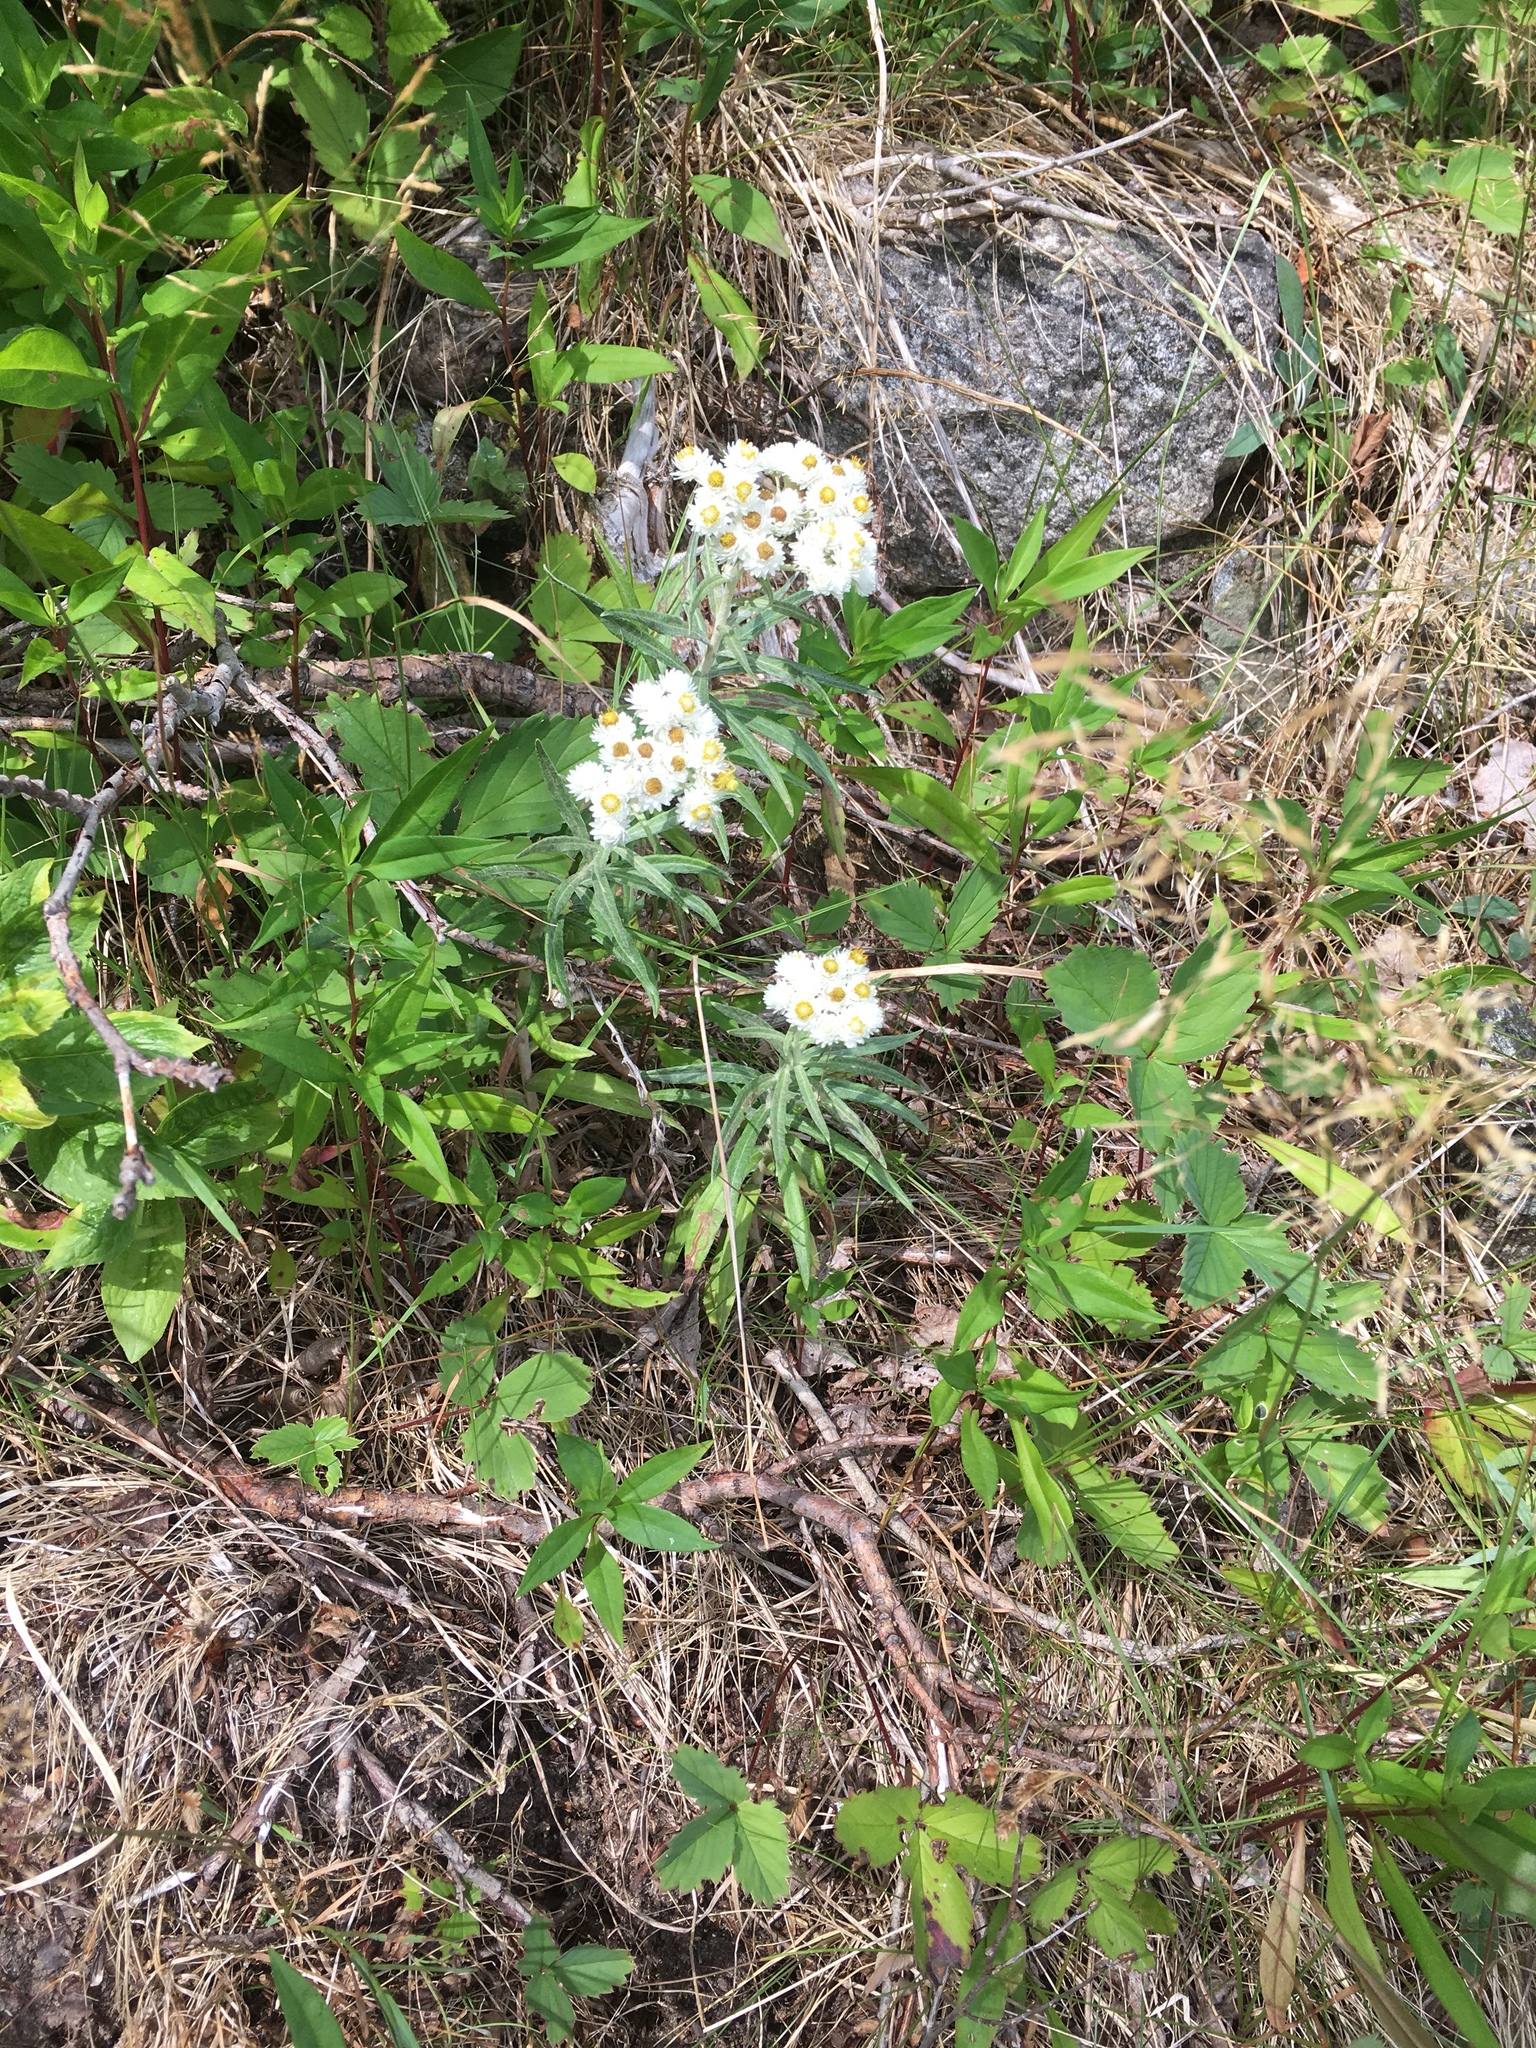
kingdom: Plantae
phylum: Tracheophyta
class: Magnoliopsida
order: Asterales
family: Asteraceae
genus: Anaphalis
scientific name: Anaphalis margaritacea
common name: Pearly everlasting
